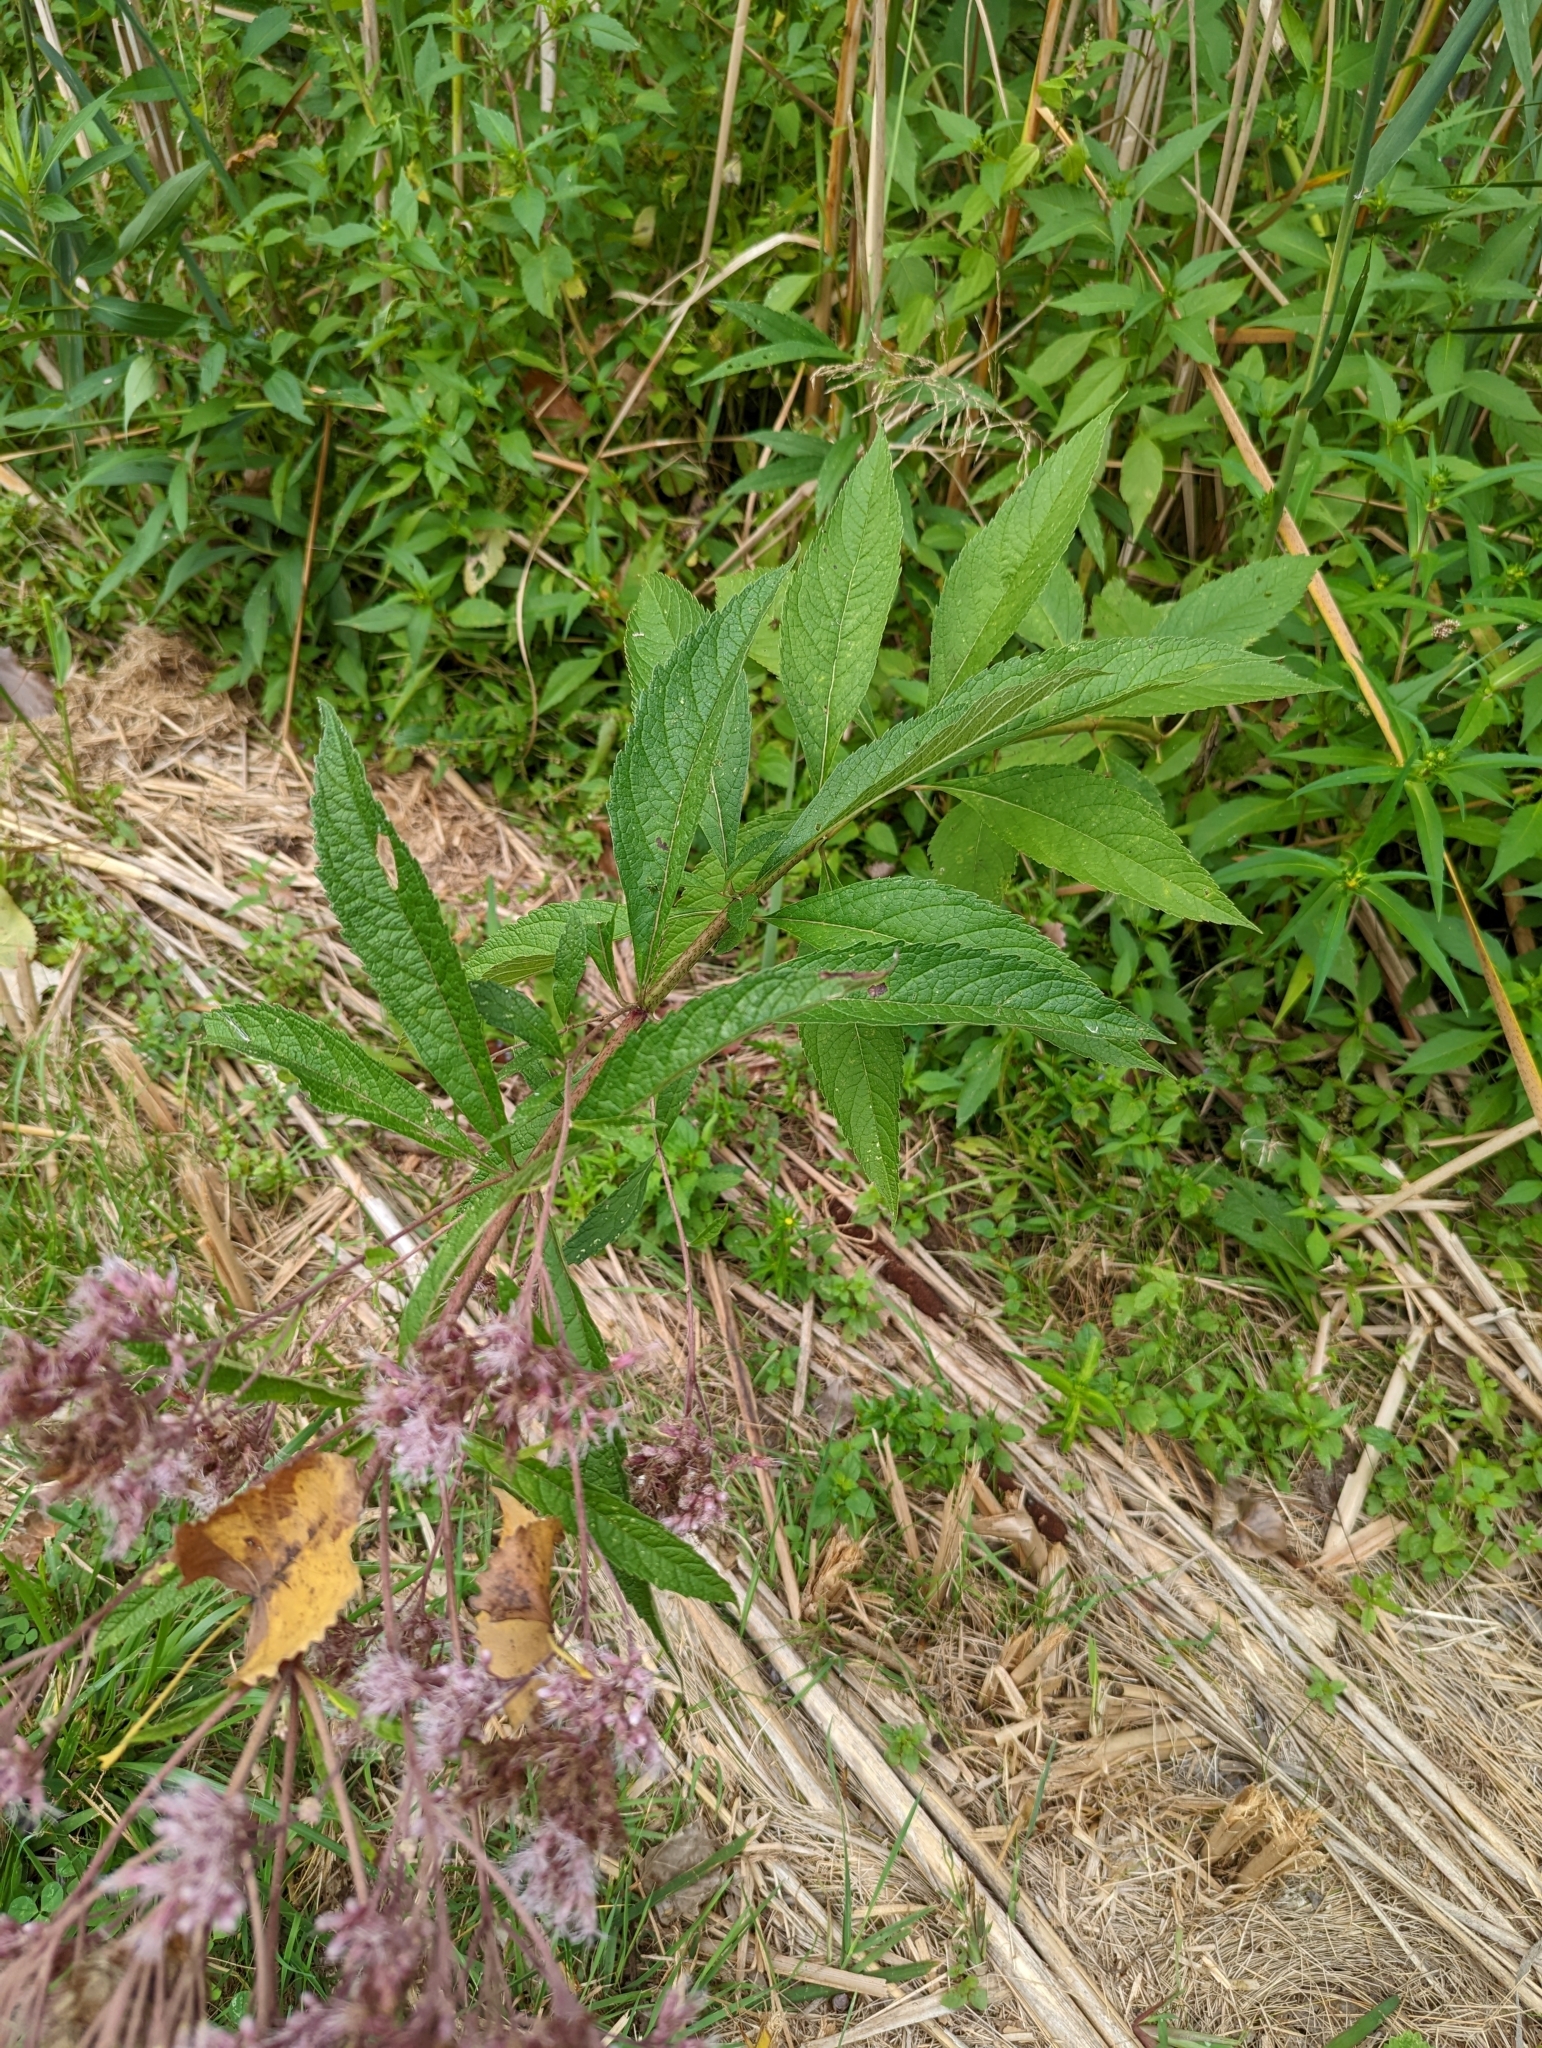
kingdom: Plantae
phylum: Tracheophyta
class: Magnoliopsida
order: Asterales
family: Asteraceae
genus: Eutrochium
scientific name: Eutrochium maculatum
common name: Spotted joe pye weed
